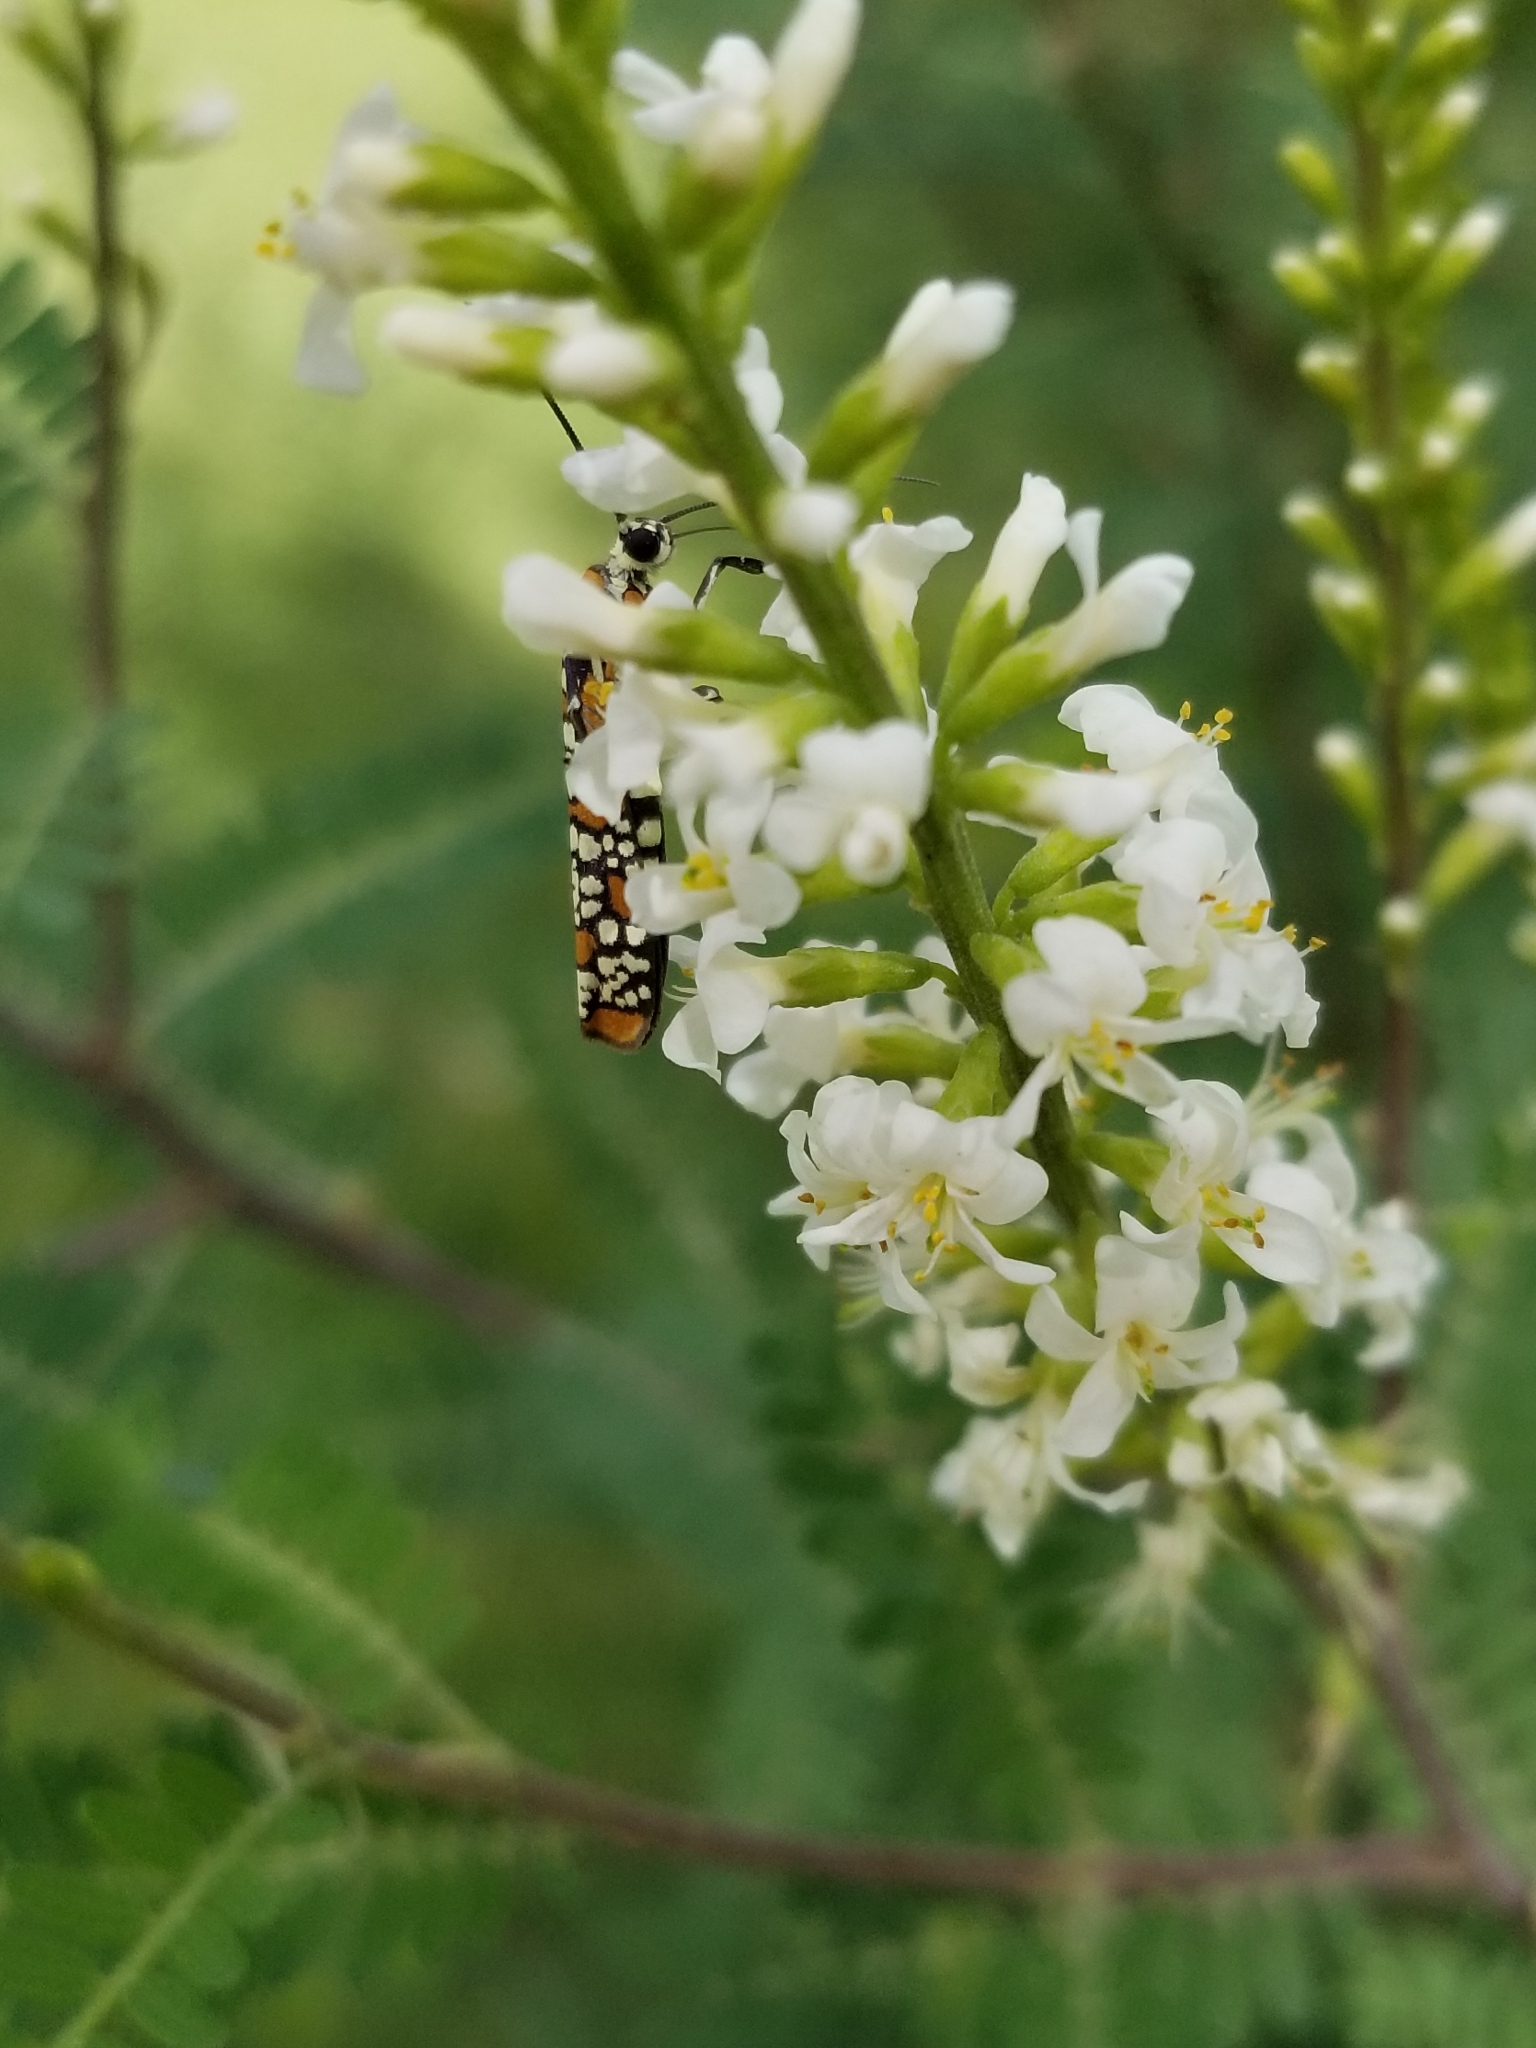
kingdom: Animalia
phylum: Arthropoda
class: Insecta
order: Lepidoptera
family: Attevidae
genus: Atteva
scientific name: Atteva punctella
